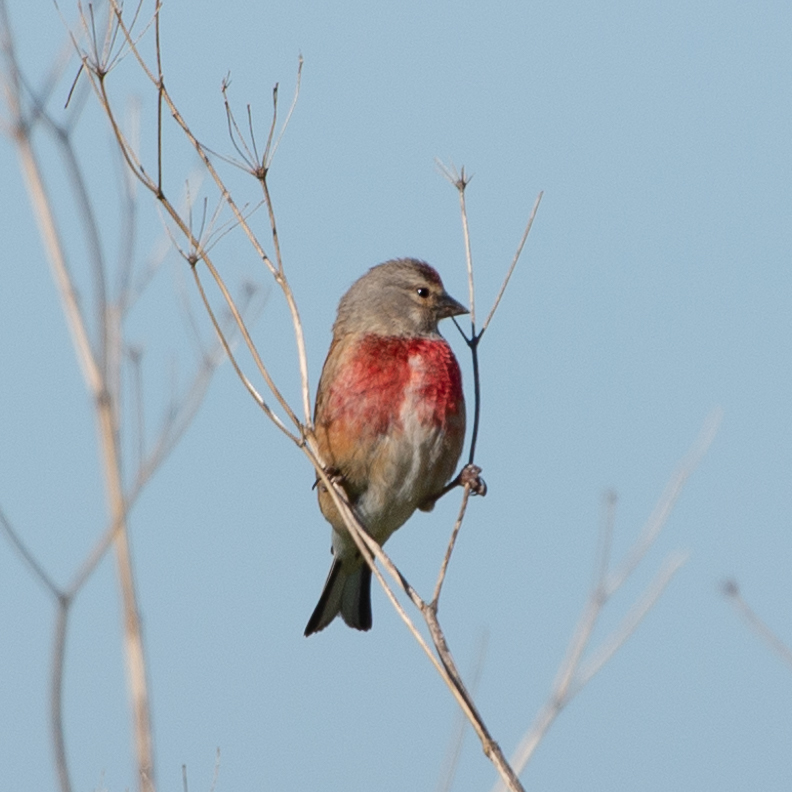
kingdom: Animalia
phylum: Chordata
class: Aves
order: Passeriformes
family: Fringillidae
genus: Linaria
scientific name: Linaria cannabina
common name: Common linnet
